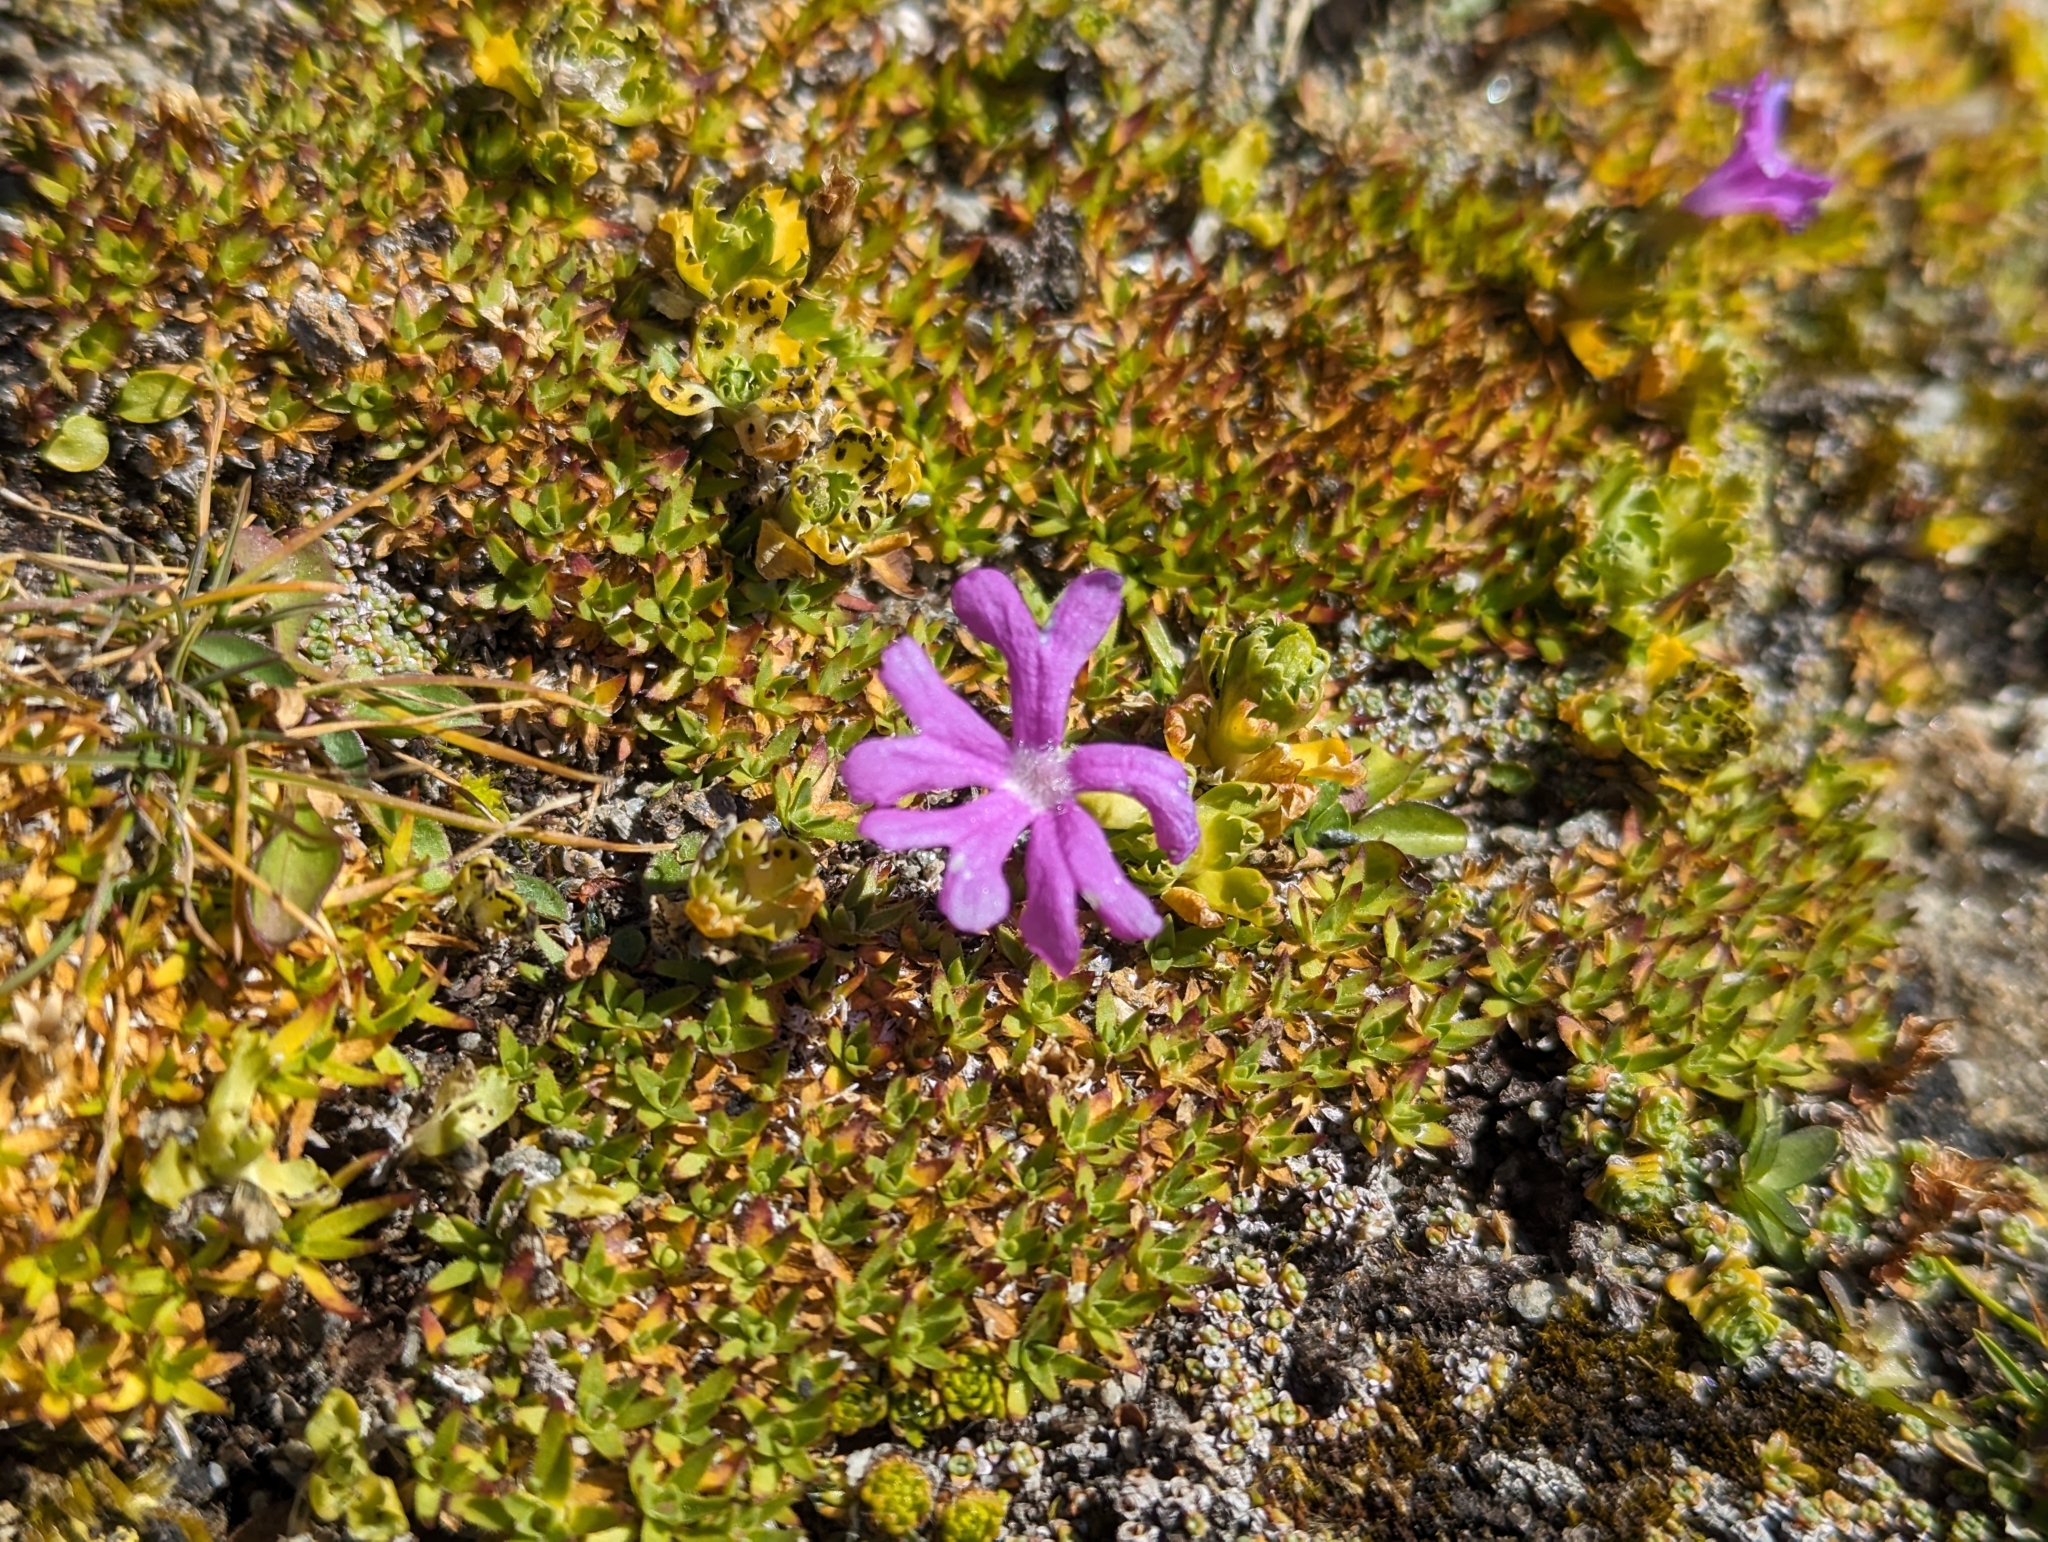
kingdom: Plantae
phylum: Tracheophyta
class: Magnoliopsida
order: Ericales
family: Primulaceae
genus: Primula
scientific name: Primula minima
